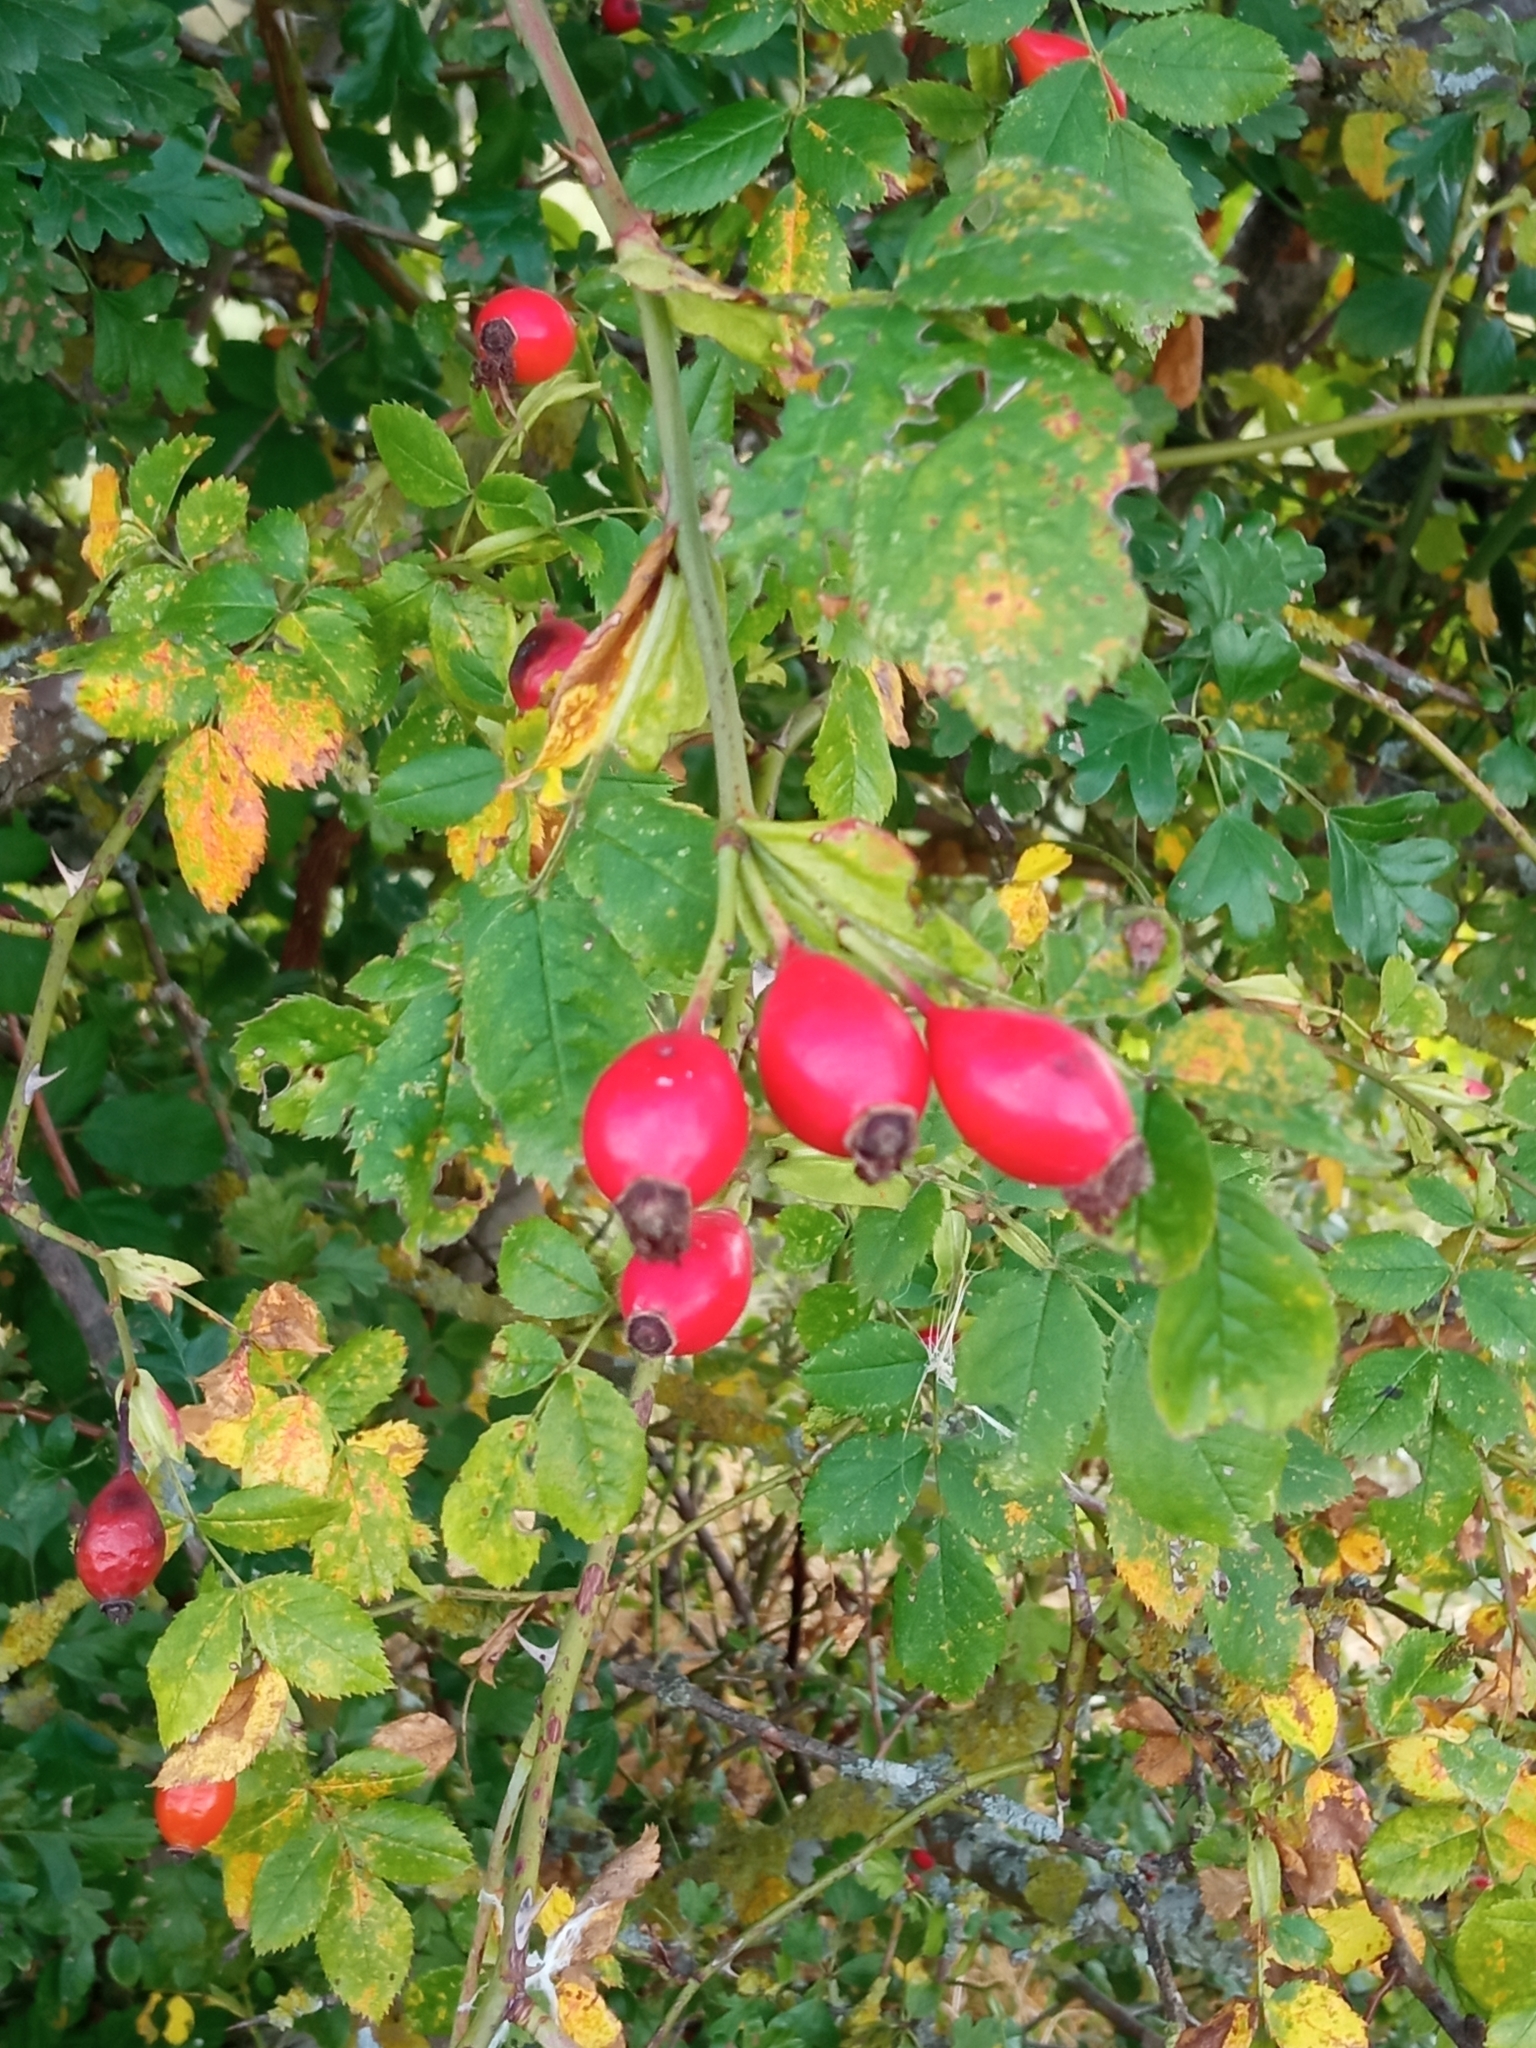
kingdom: Plantae
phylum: Tracheophyta
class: Magnoliopsida
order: Rosales
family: Rosaceae
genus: Rosa
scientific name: Rosa canina
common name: Dog rose
